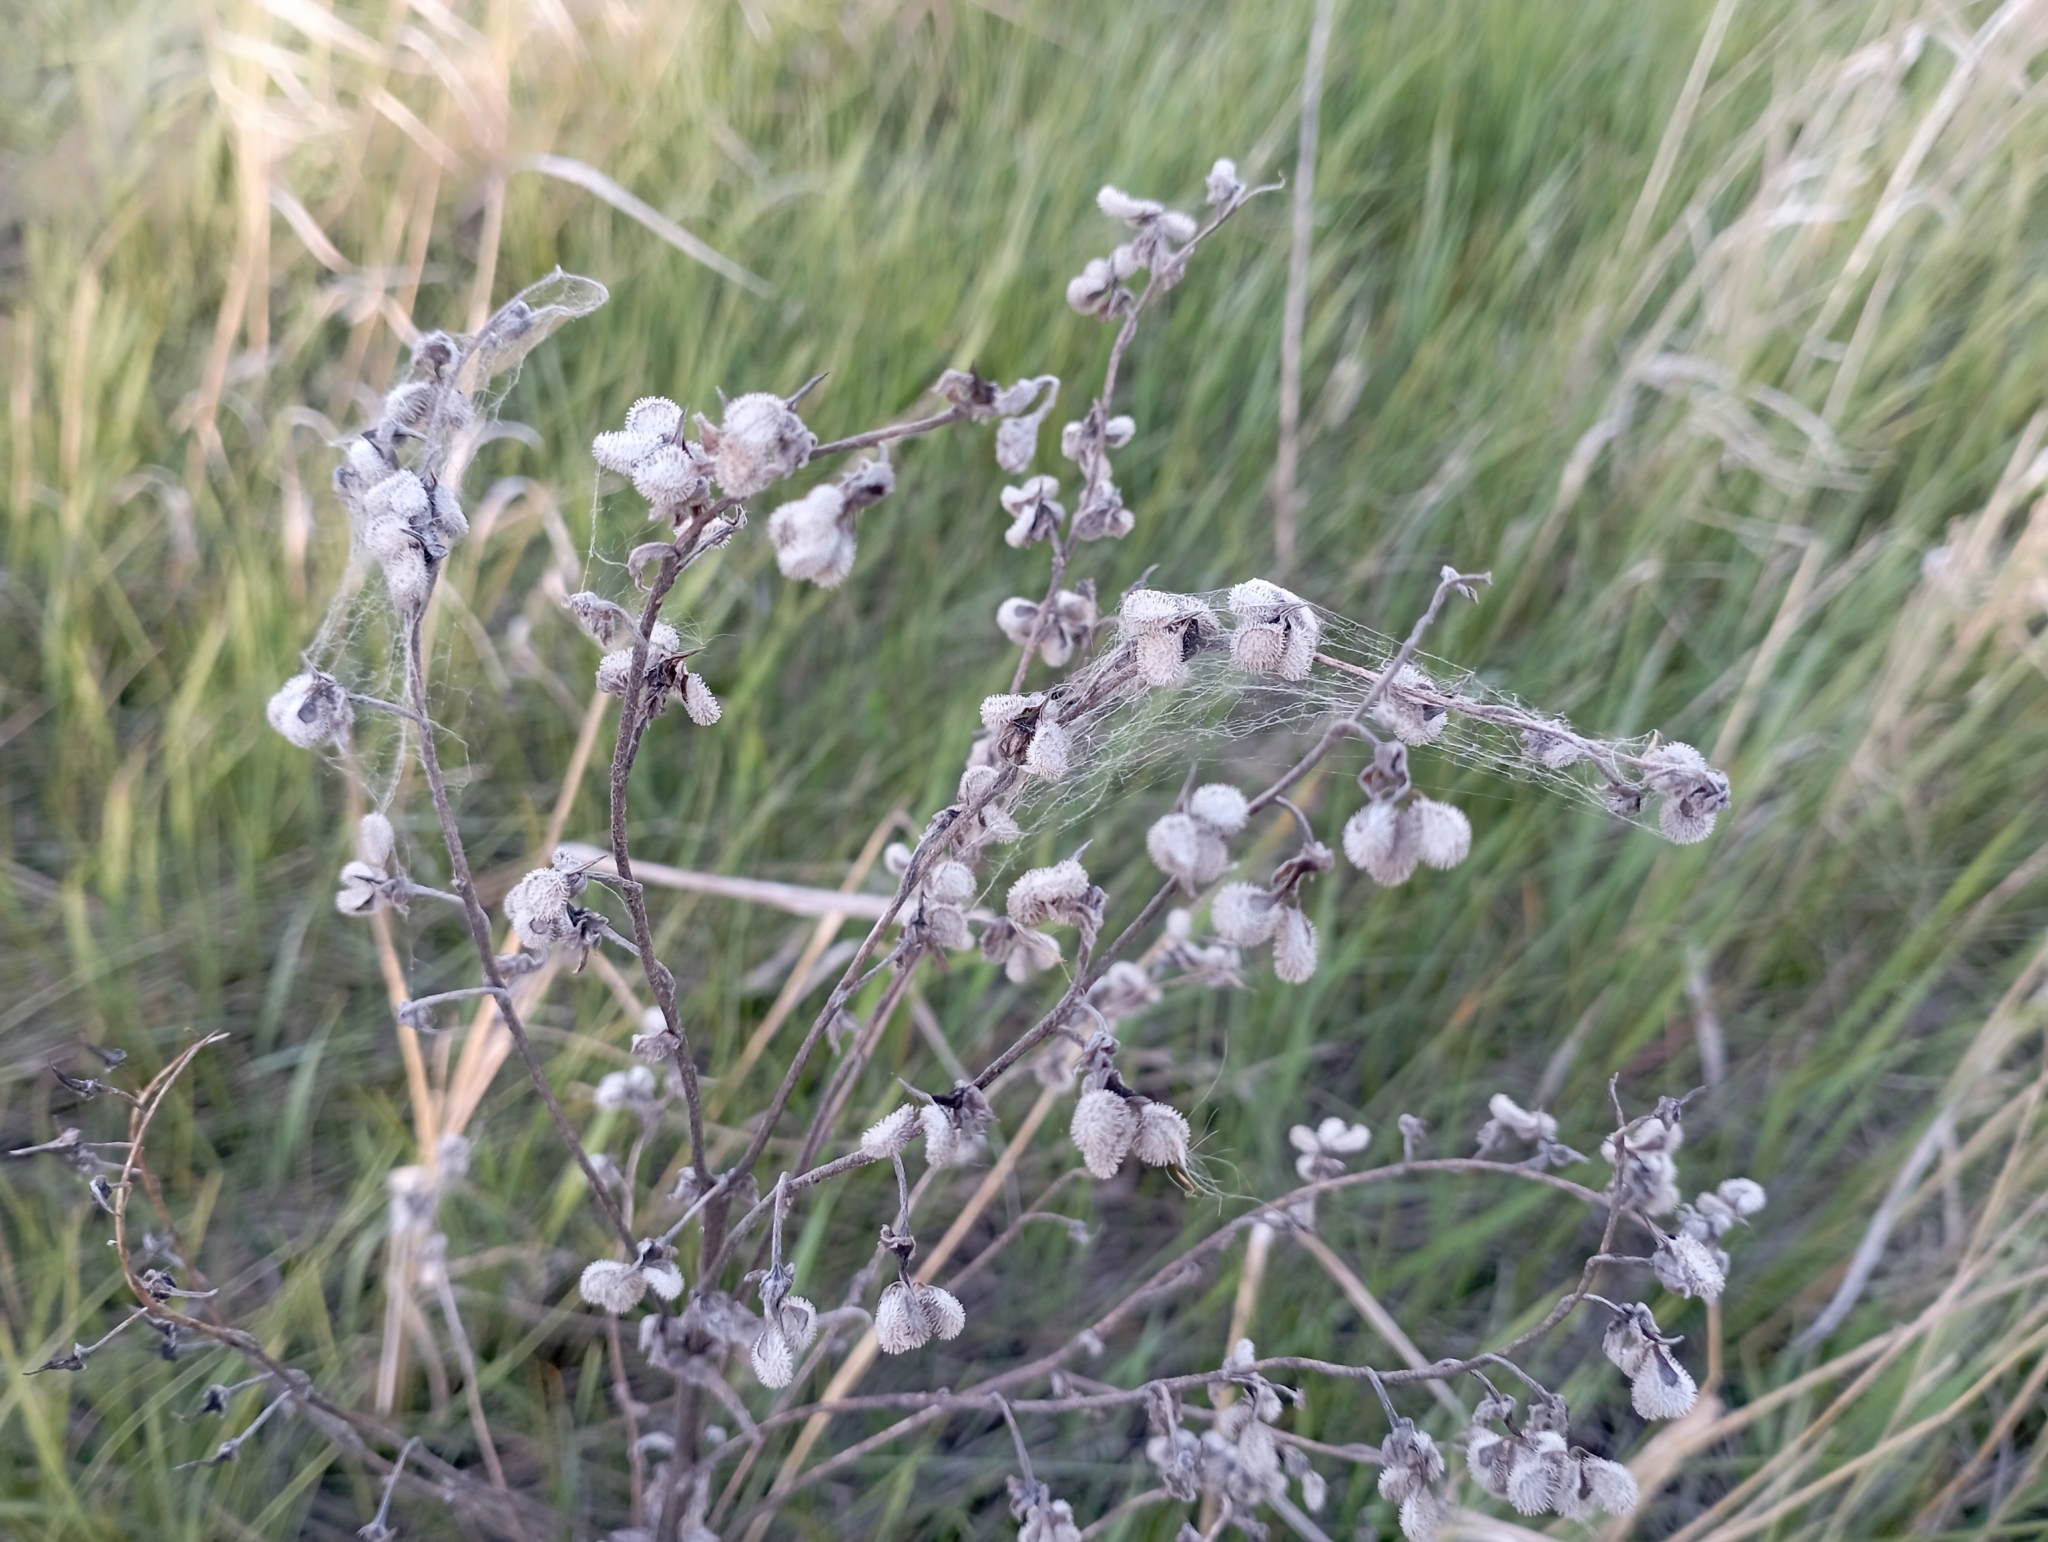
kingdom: Plantae
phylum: Tracheophyta
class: Magnoliopsida
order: Boraginales
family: Boraginaceae
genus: Cynoglossum
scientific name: Cynoglossum officinale
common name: Hound's-tongue
